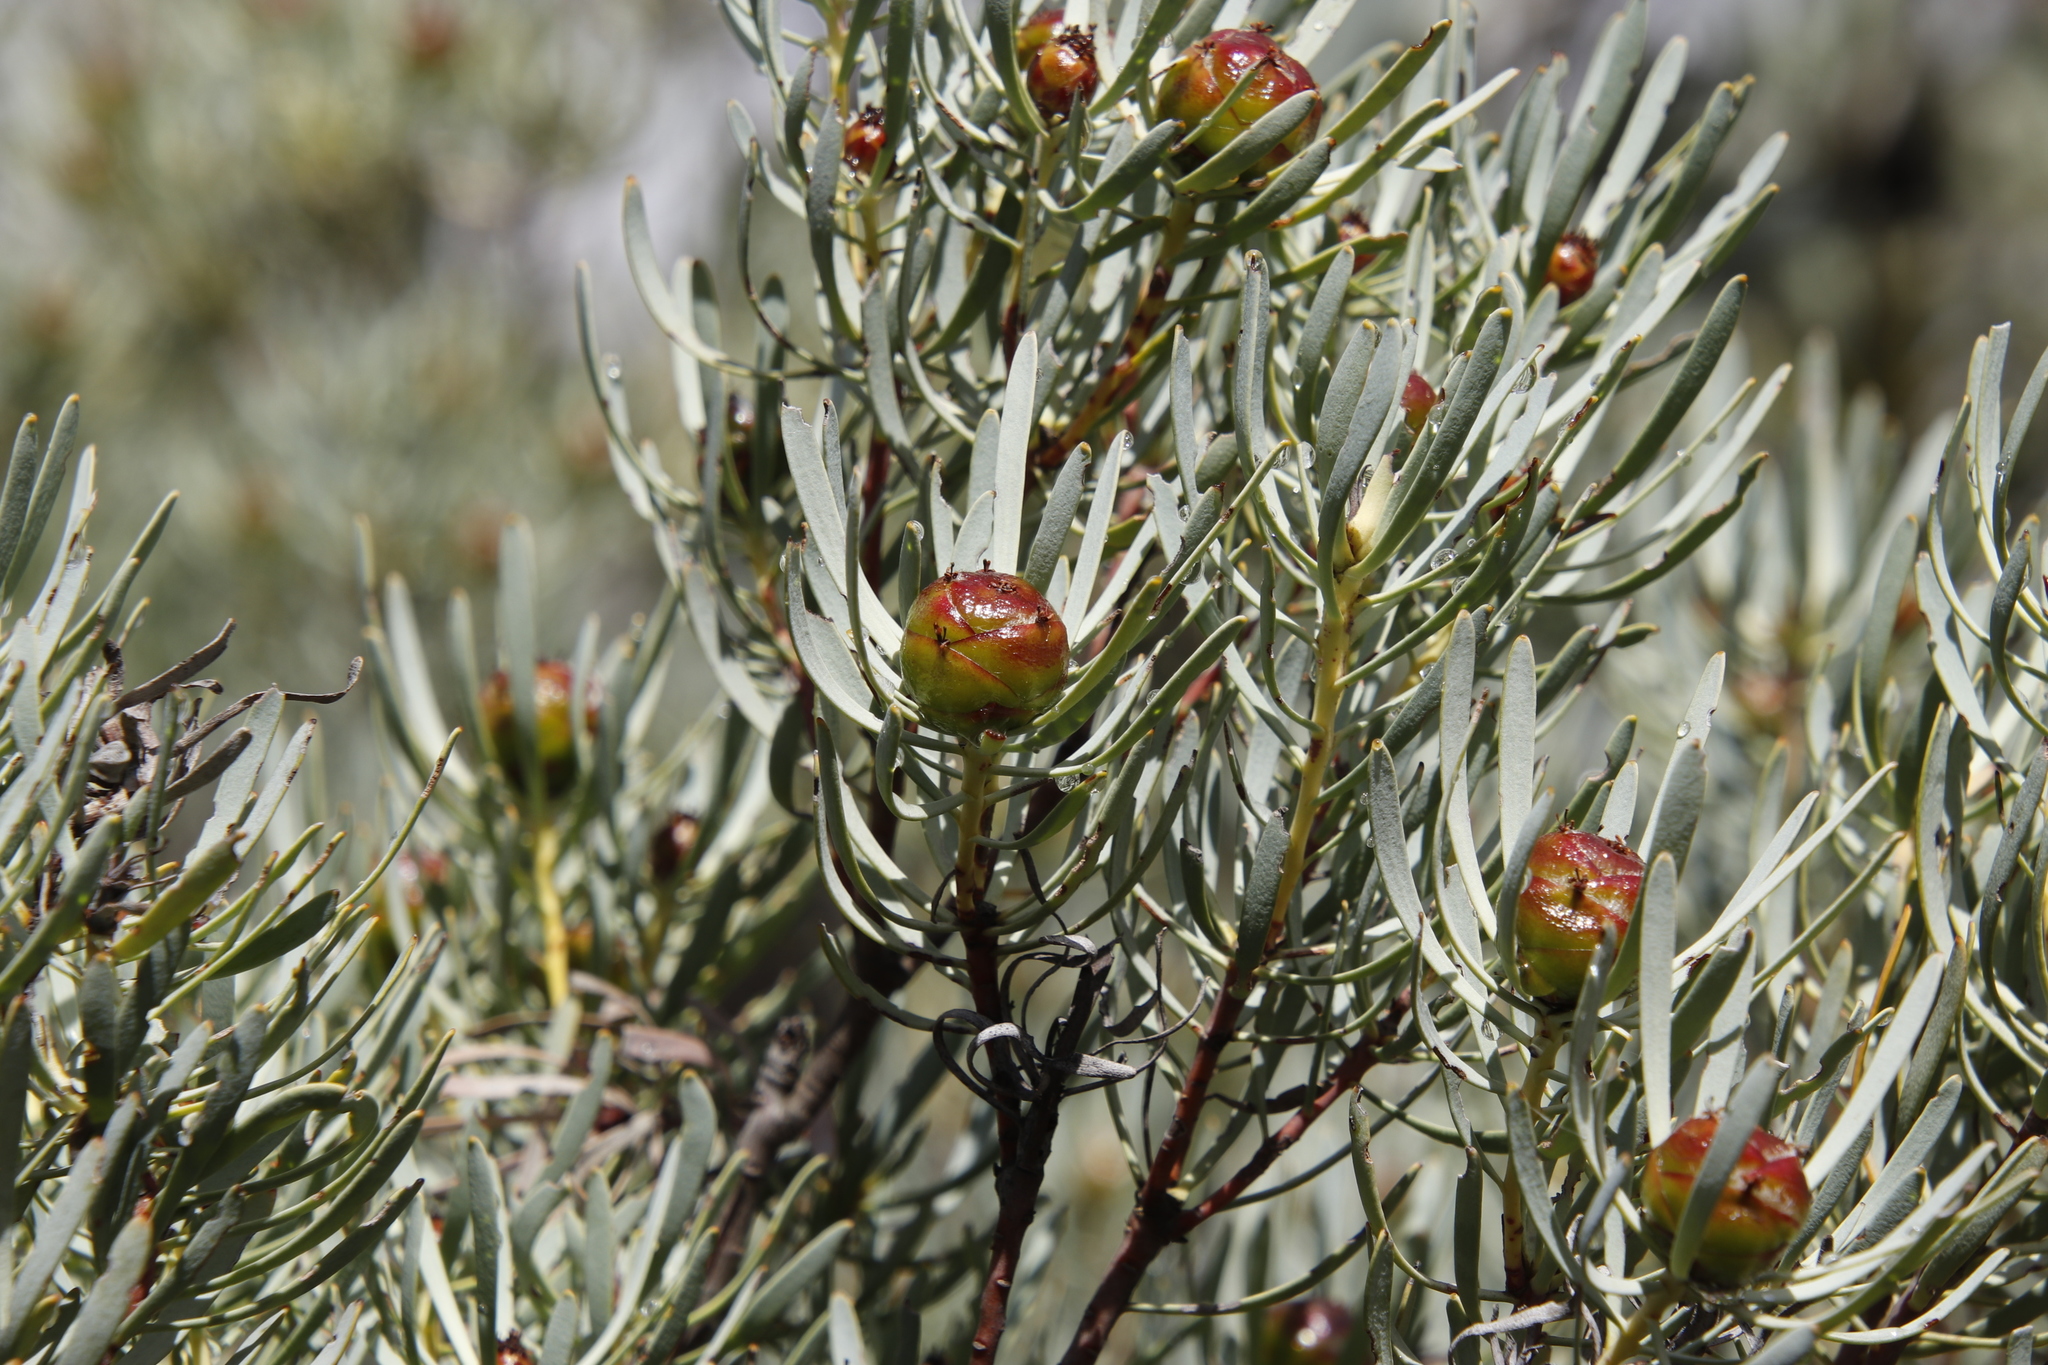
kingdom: Plantae
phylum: Tracheophyta
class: Magnoliopsida
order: Proteales
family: Proteaceae
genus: Leucadendron
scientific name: Leucadendron meyerianum
